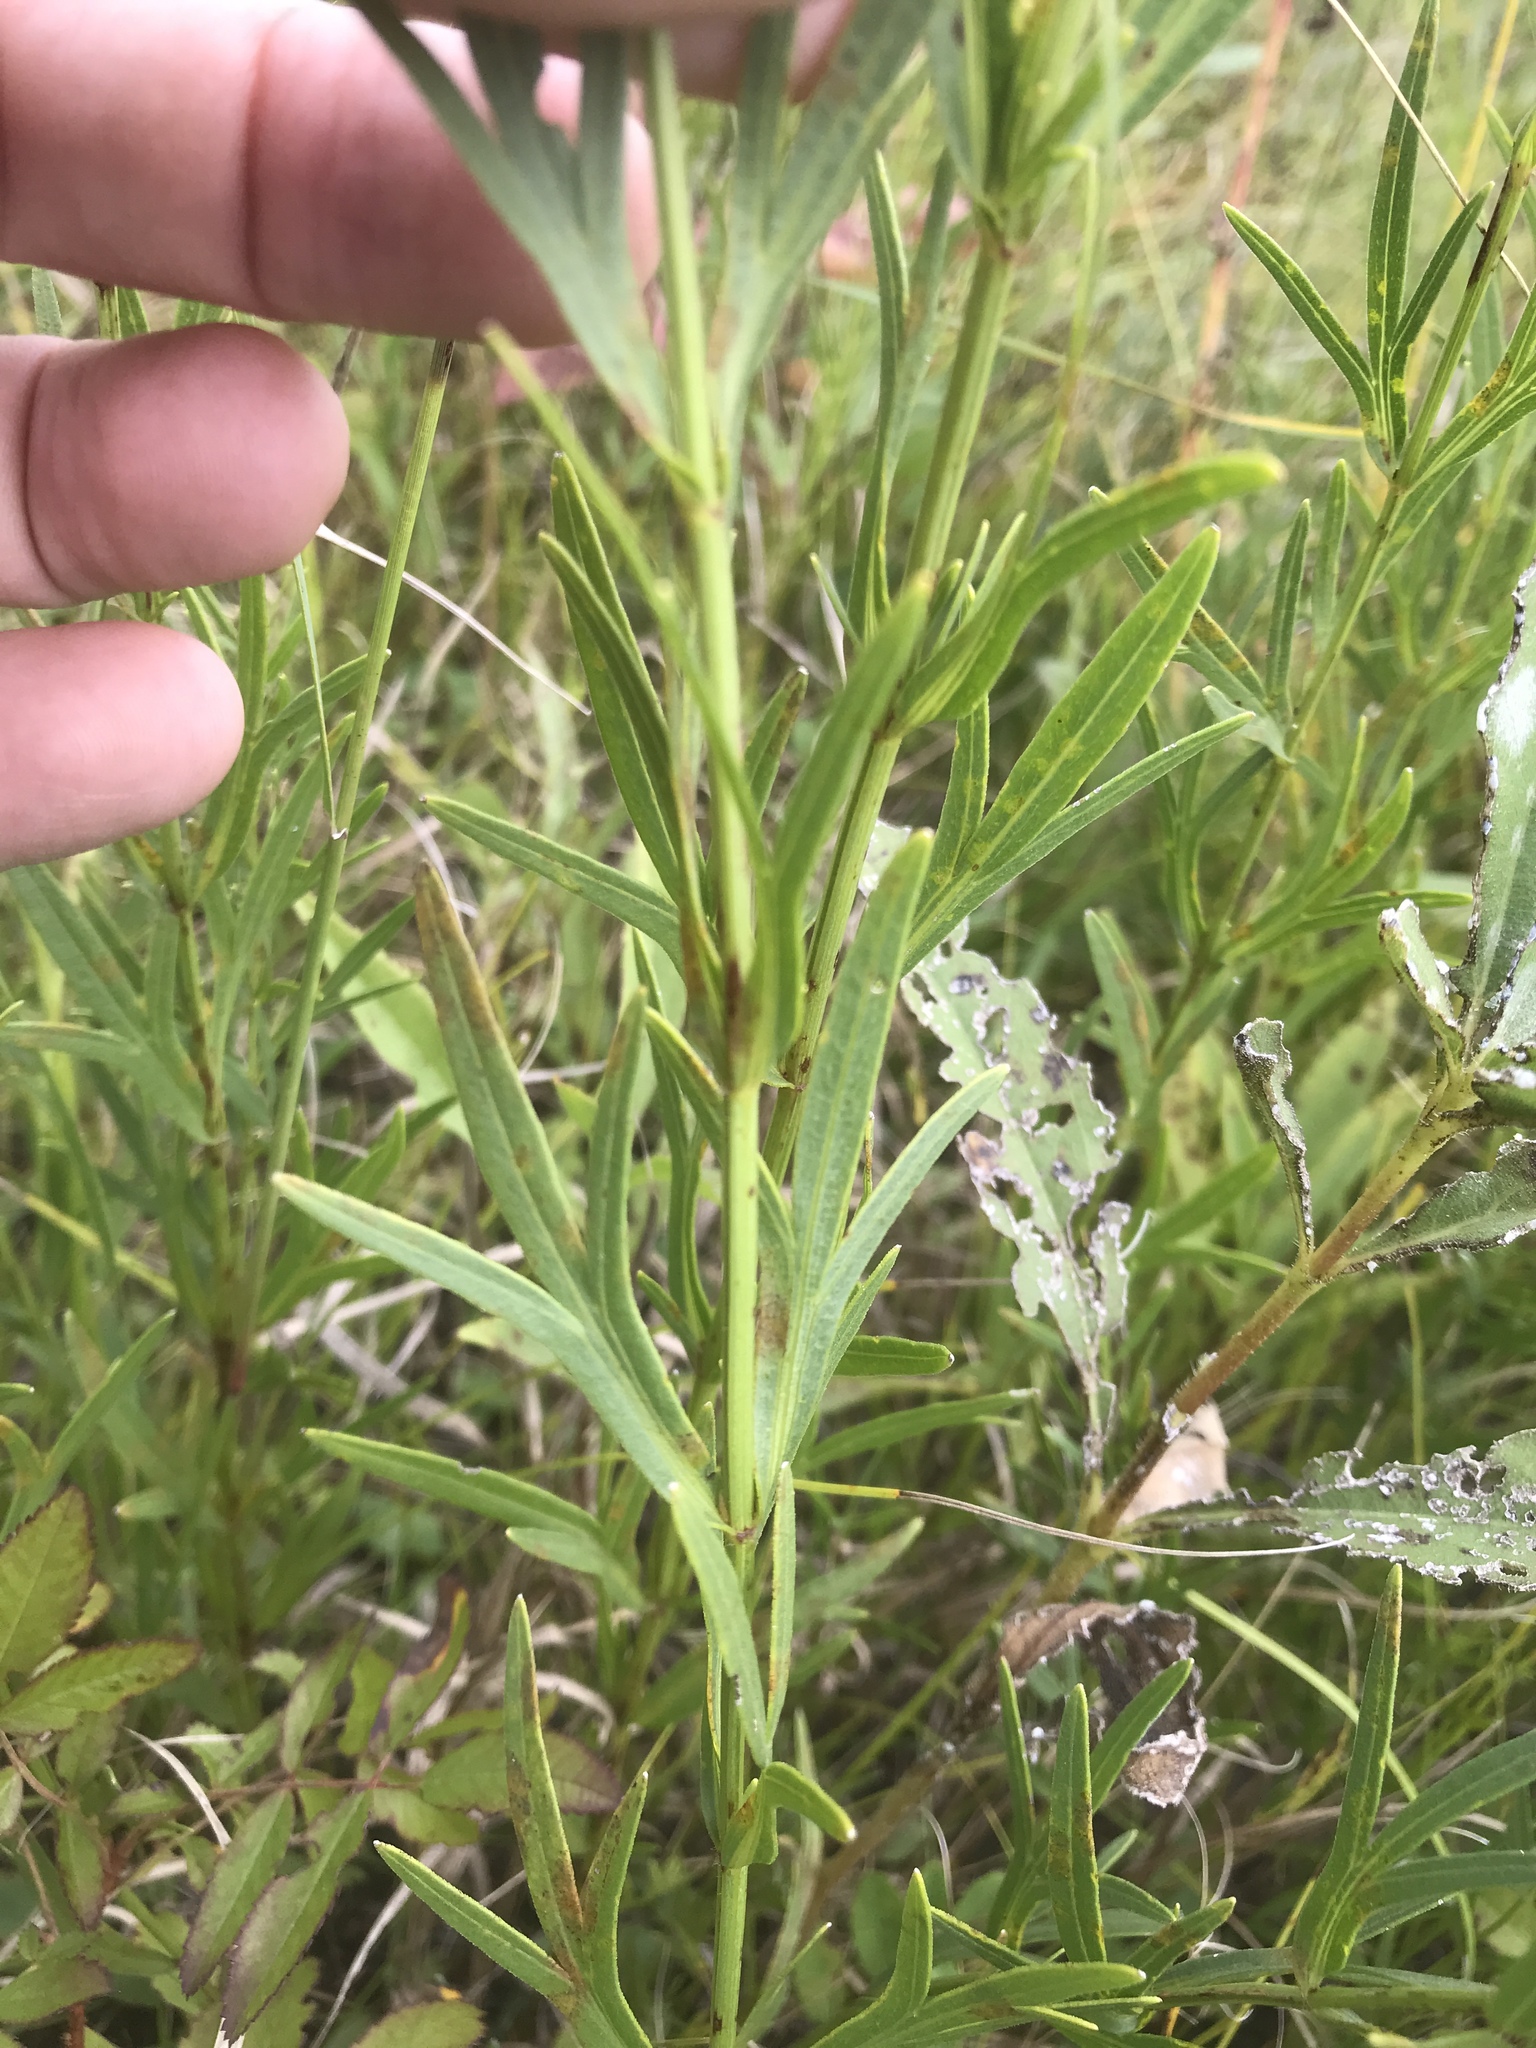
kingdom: Plantae
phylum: Tracheophyta
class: Magnoliopsida
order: Asterales
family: Asteraceae
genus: Coreopsis
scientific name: Coreopsis palmata
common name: Prairie coreopsis
